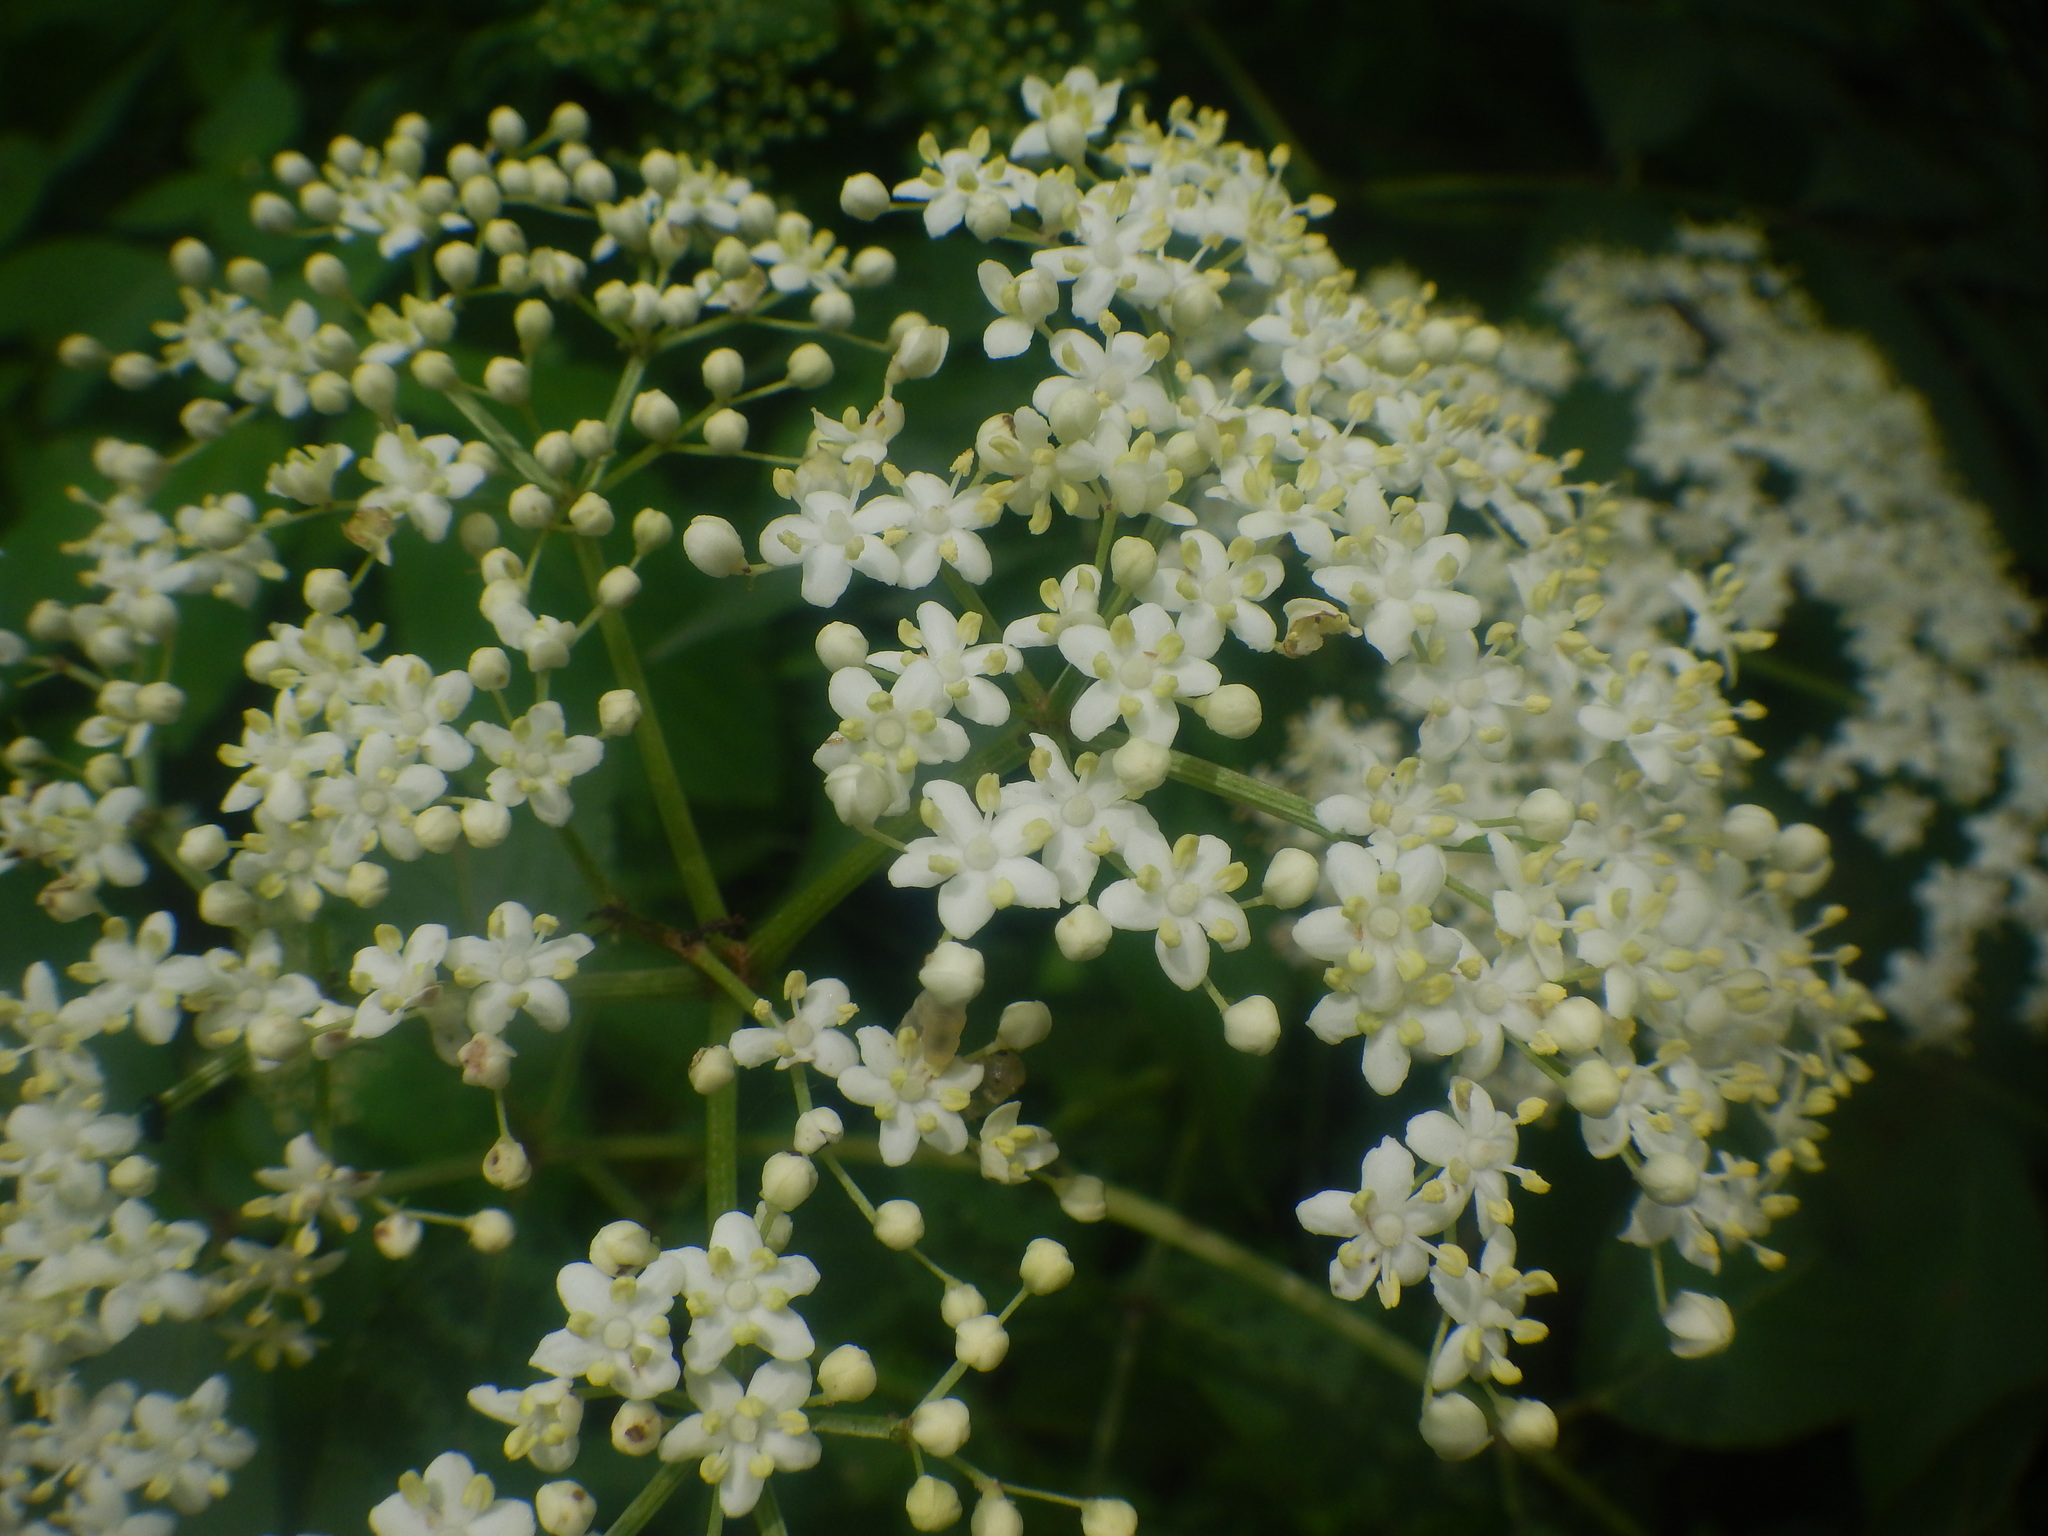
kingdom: Plantae
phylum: Tracheophyta
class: Magnoliopsida
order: Dipsacales
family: Viburnaceae
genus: Sambucus
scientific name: Sambucus canadensis
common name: American elder
